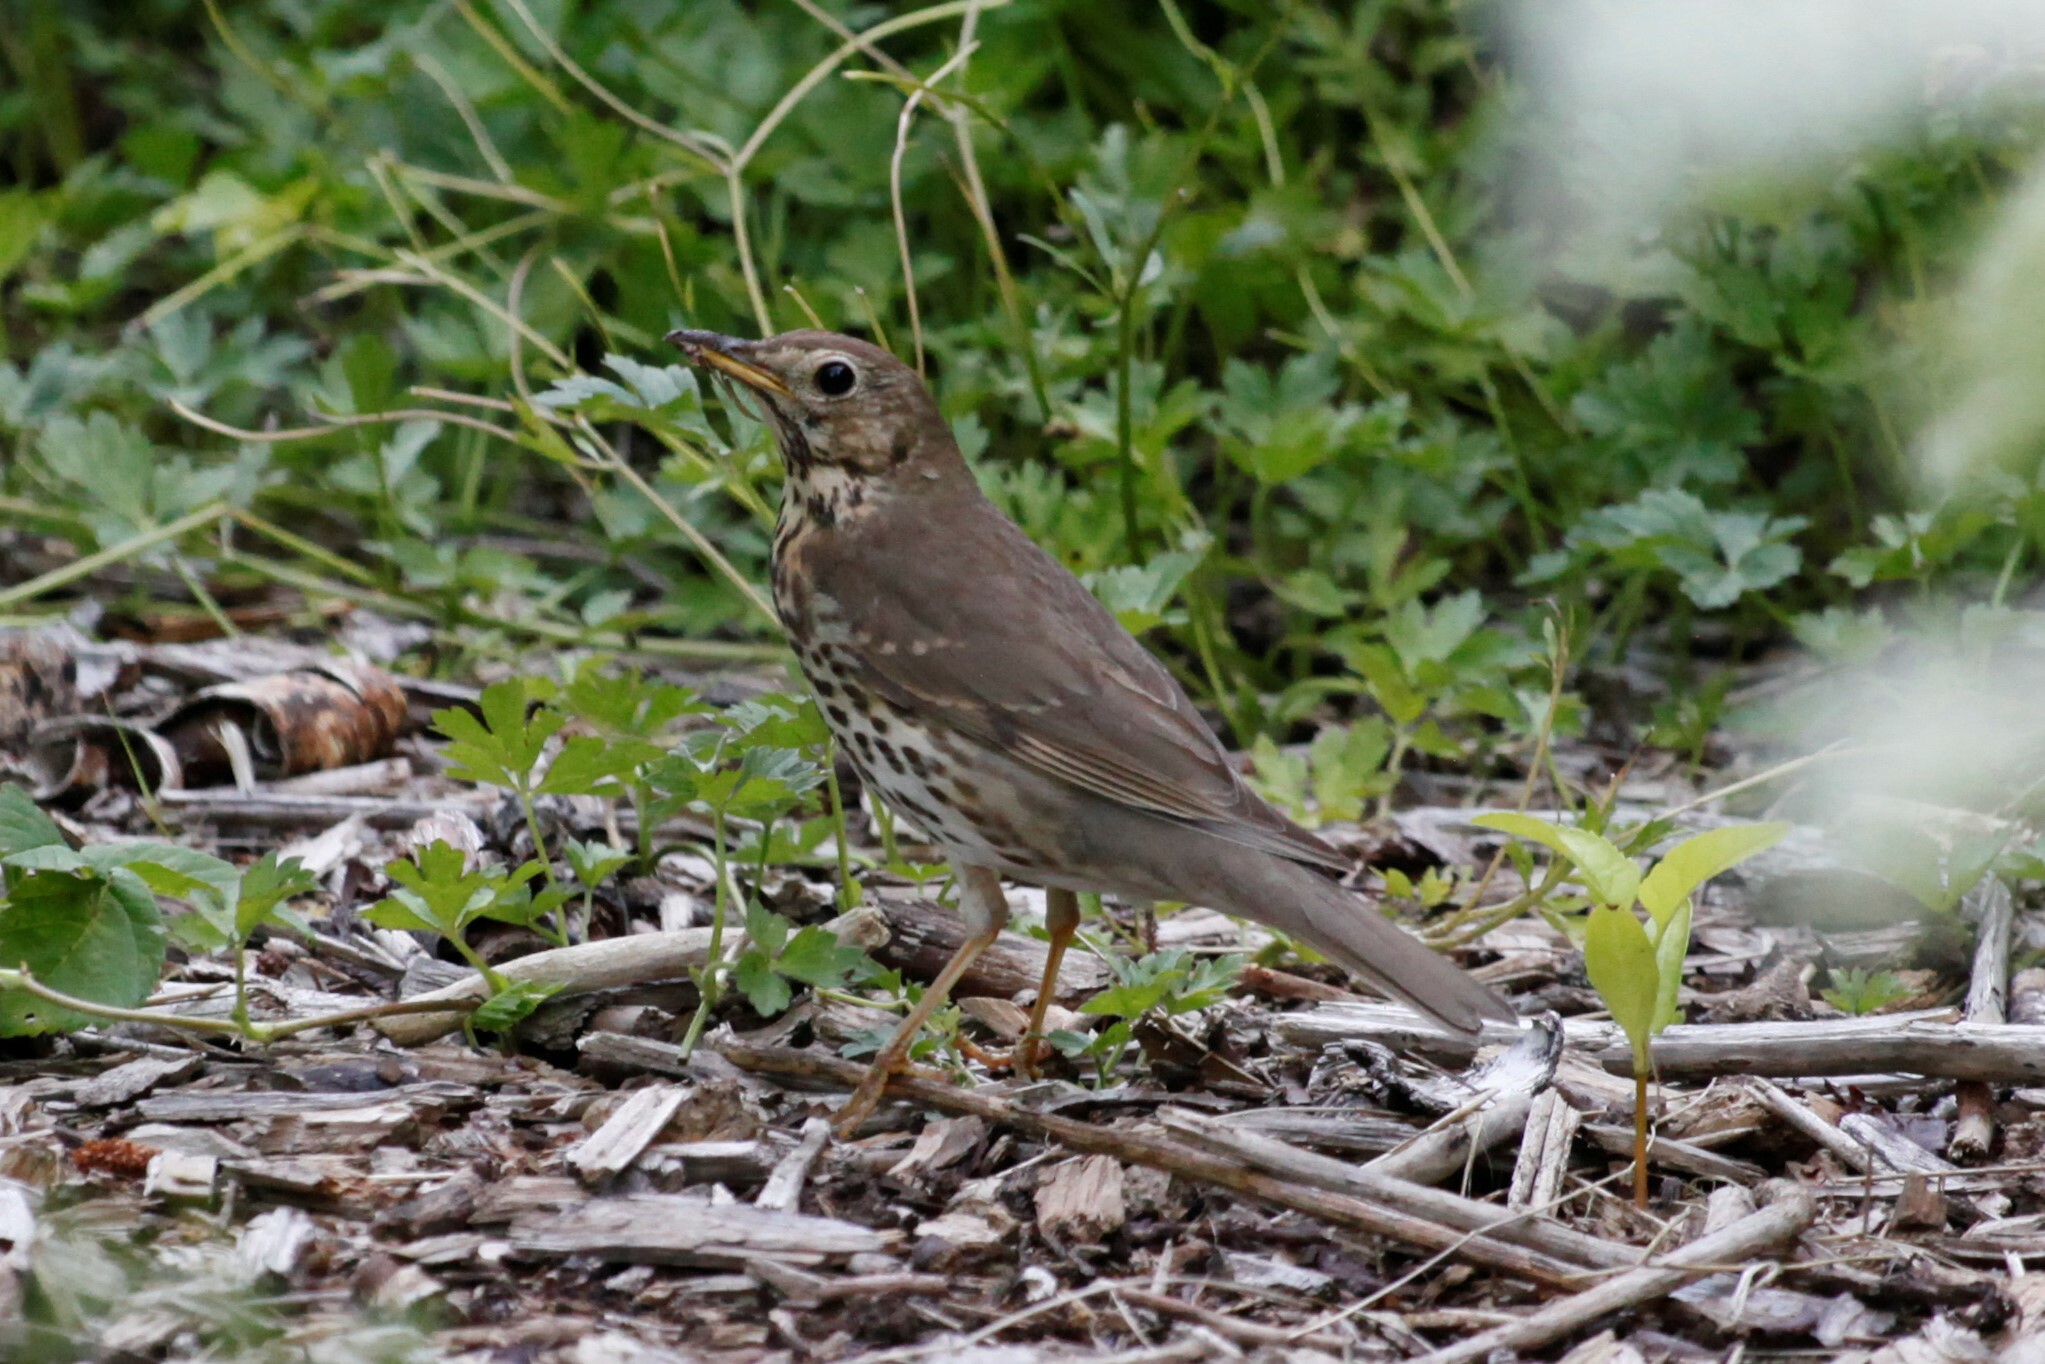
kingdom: Animalia
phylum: Chordata
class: Aves
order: Passeriformes
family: Turdidae
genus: Turdus
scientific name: Turdus philomelos
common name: Song thrush
